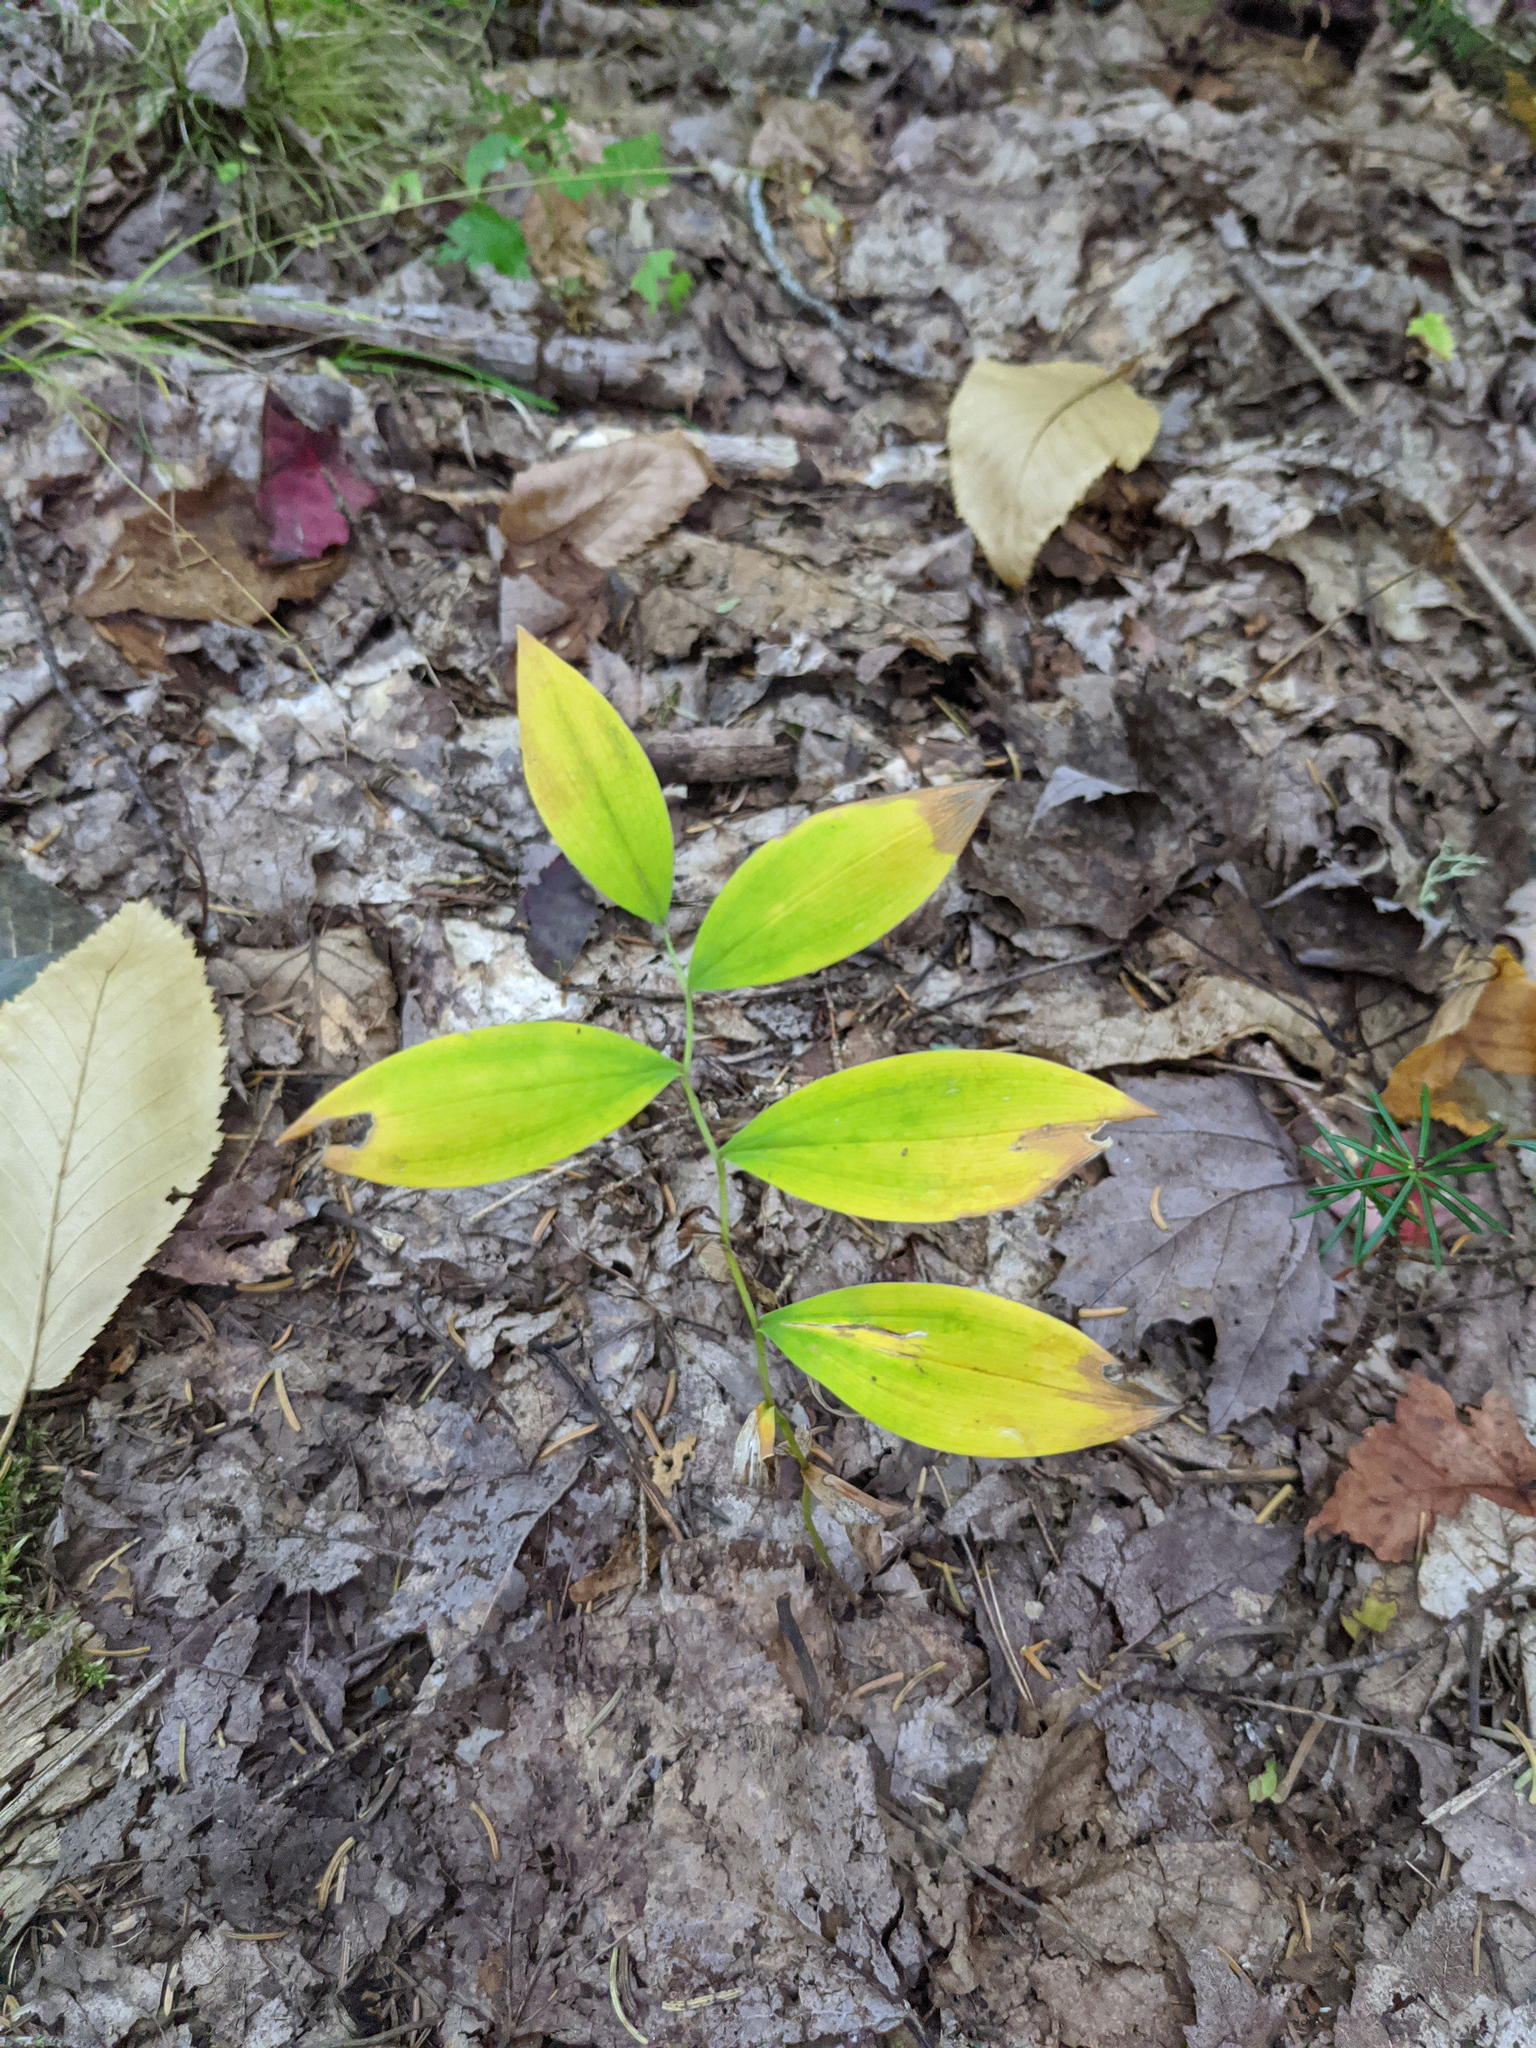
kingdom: Plantae
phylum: Tracheophyta
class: Liliopsida
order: Liliales
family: Colchicaceae
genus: Uvularia
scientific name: Uvularia sessilifolia
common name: Straw-lily
